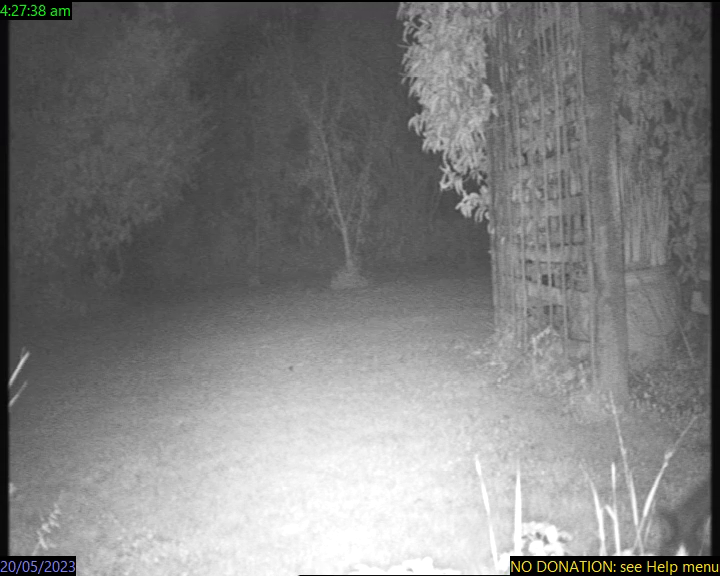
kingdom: Animalia
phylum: Chordata
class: Mammalia
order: Carnivora
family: Felidae
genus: Felis
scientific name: Felis catus
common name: Domestic cat
